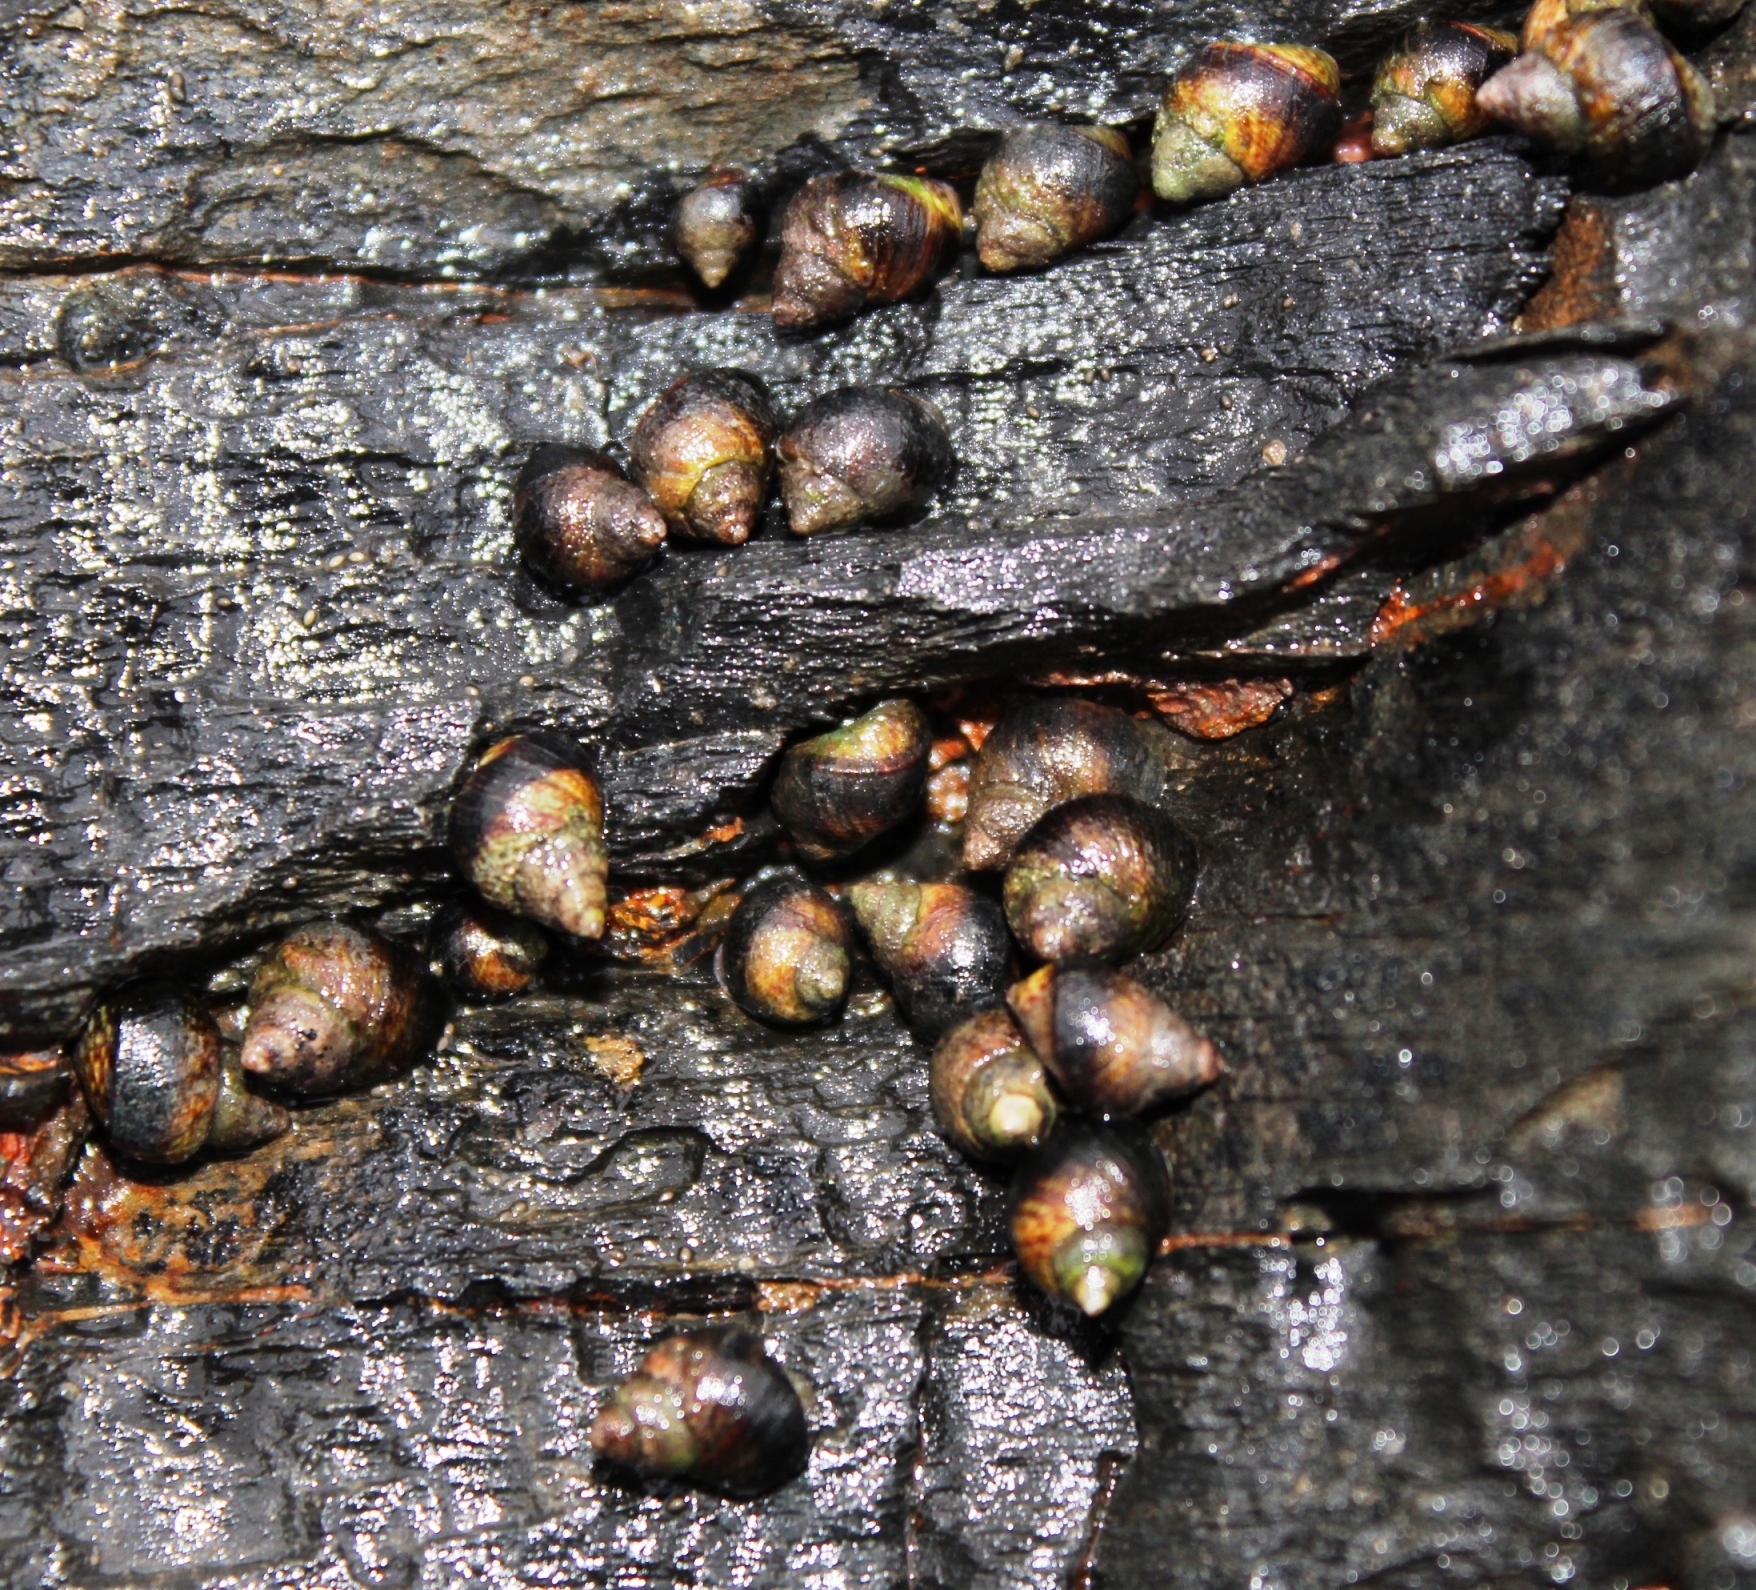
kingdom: Animalia
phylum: Mollusca
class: Gastropoda
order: Littorinimorpha
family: Littorinidae
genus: Afrolittorina
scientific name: Afrolittorina knysnaensis
